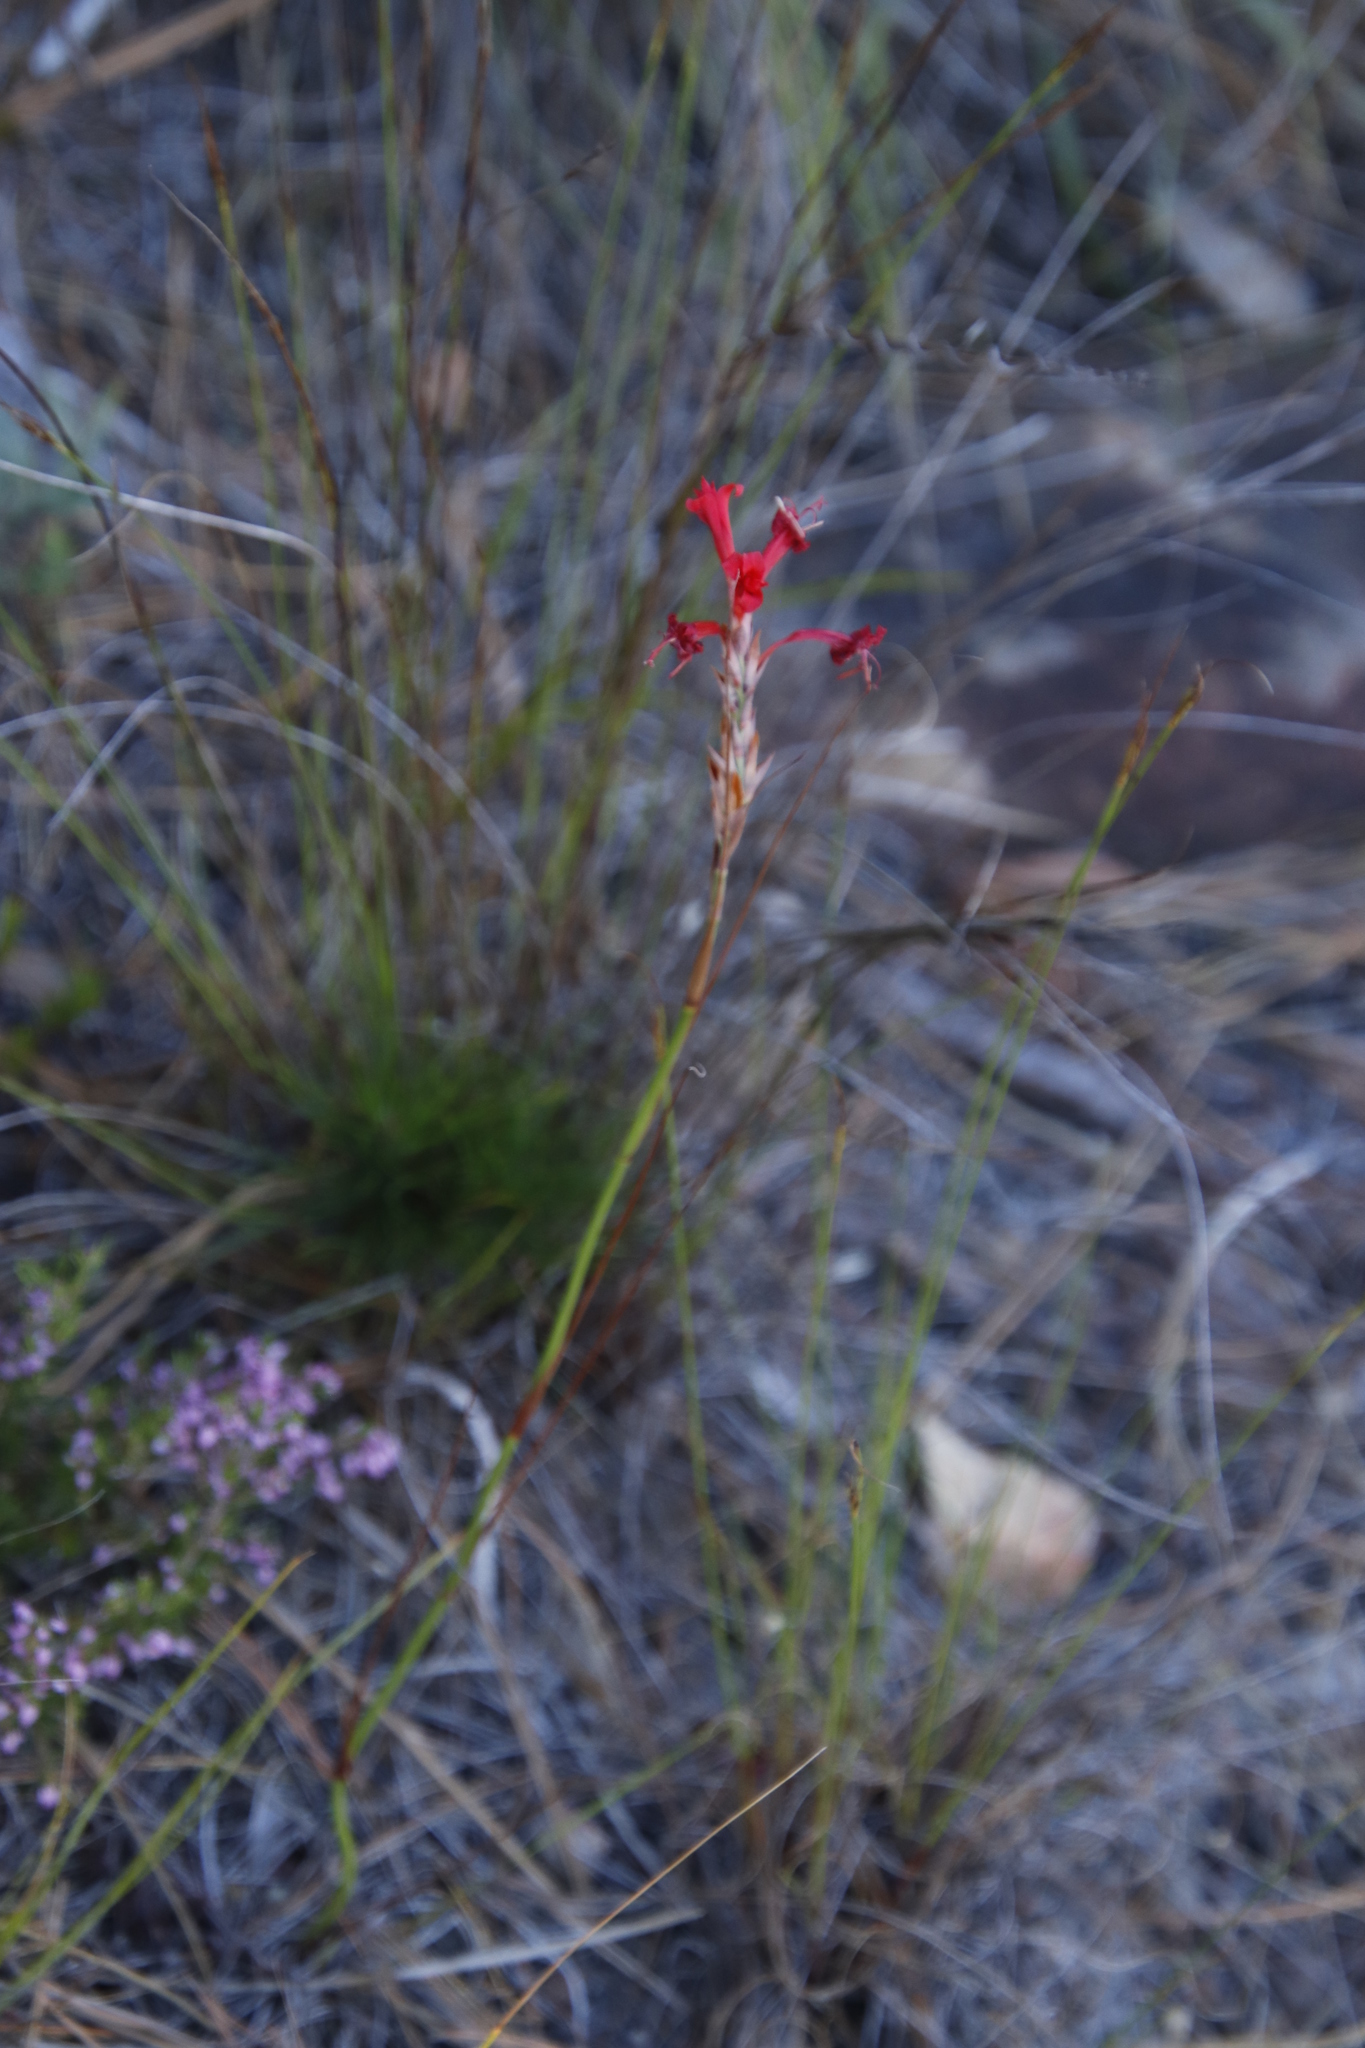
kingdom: Plantae
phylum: Tracheophyta
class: Liliopsida
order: Asparagales
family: Iridaceae
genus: Tritoniopsis
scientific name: Tritoniopsis triticea
